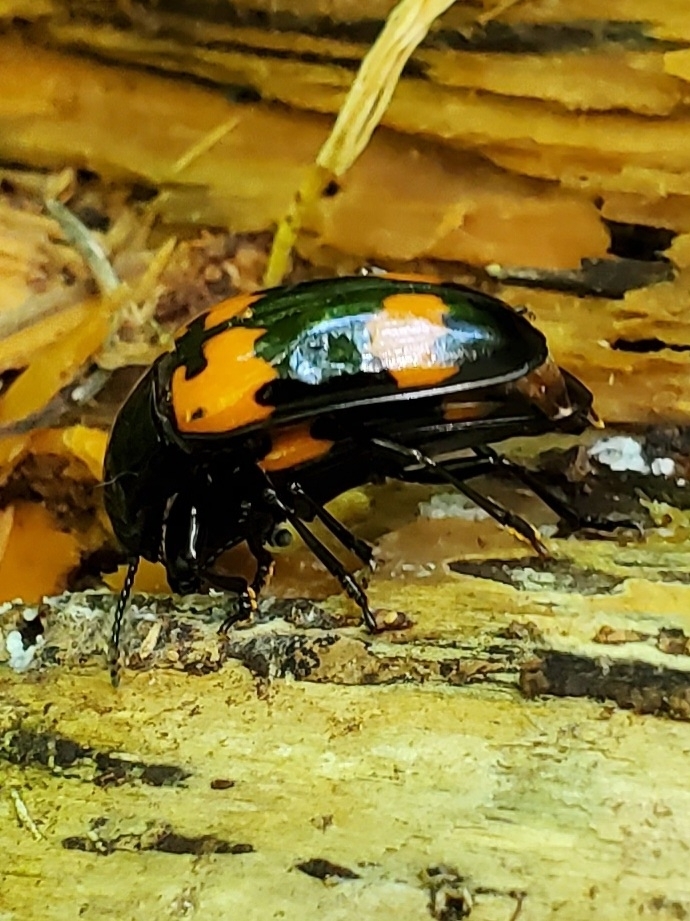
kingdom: Animalia
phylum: Arthropoda
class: Insecta
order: Coleoptera
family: Erotylidae
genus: Megalodacne
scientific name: Megalodacne heros
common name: Pleasing fungus beetle
